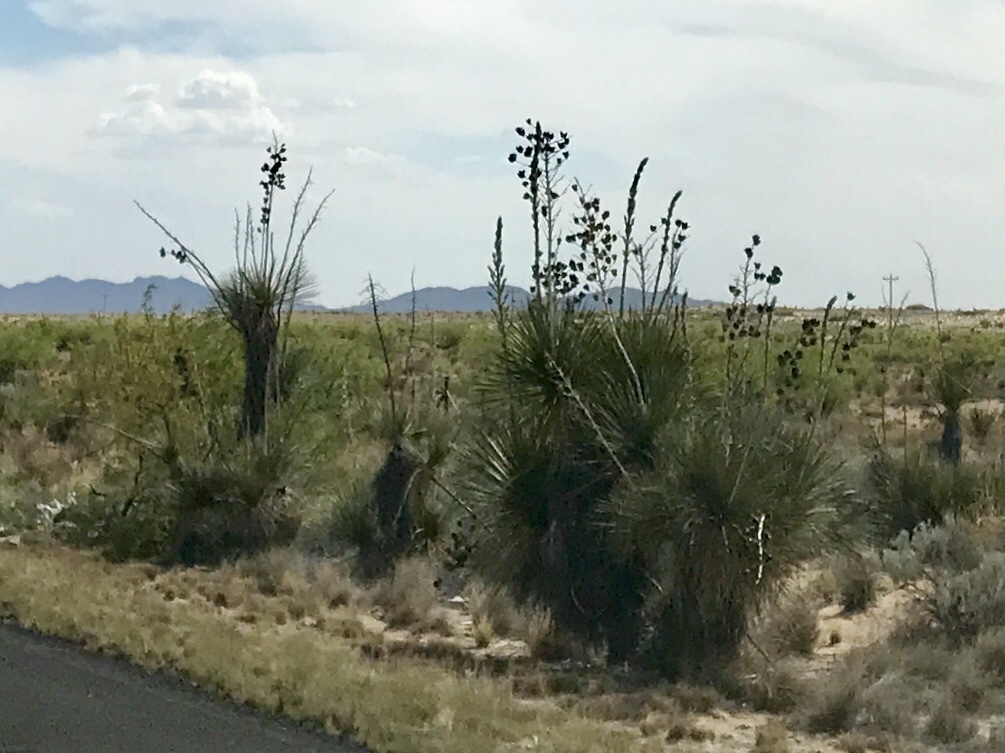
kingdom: Plantae
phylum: Tracheophyta
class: Liliopsida
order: Asparagales
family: Asparagaceae
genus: Yucca
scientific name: Yucca elata
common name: Palmella
